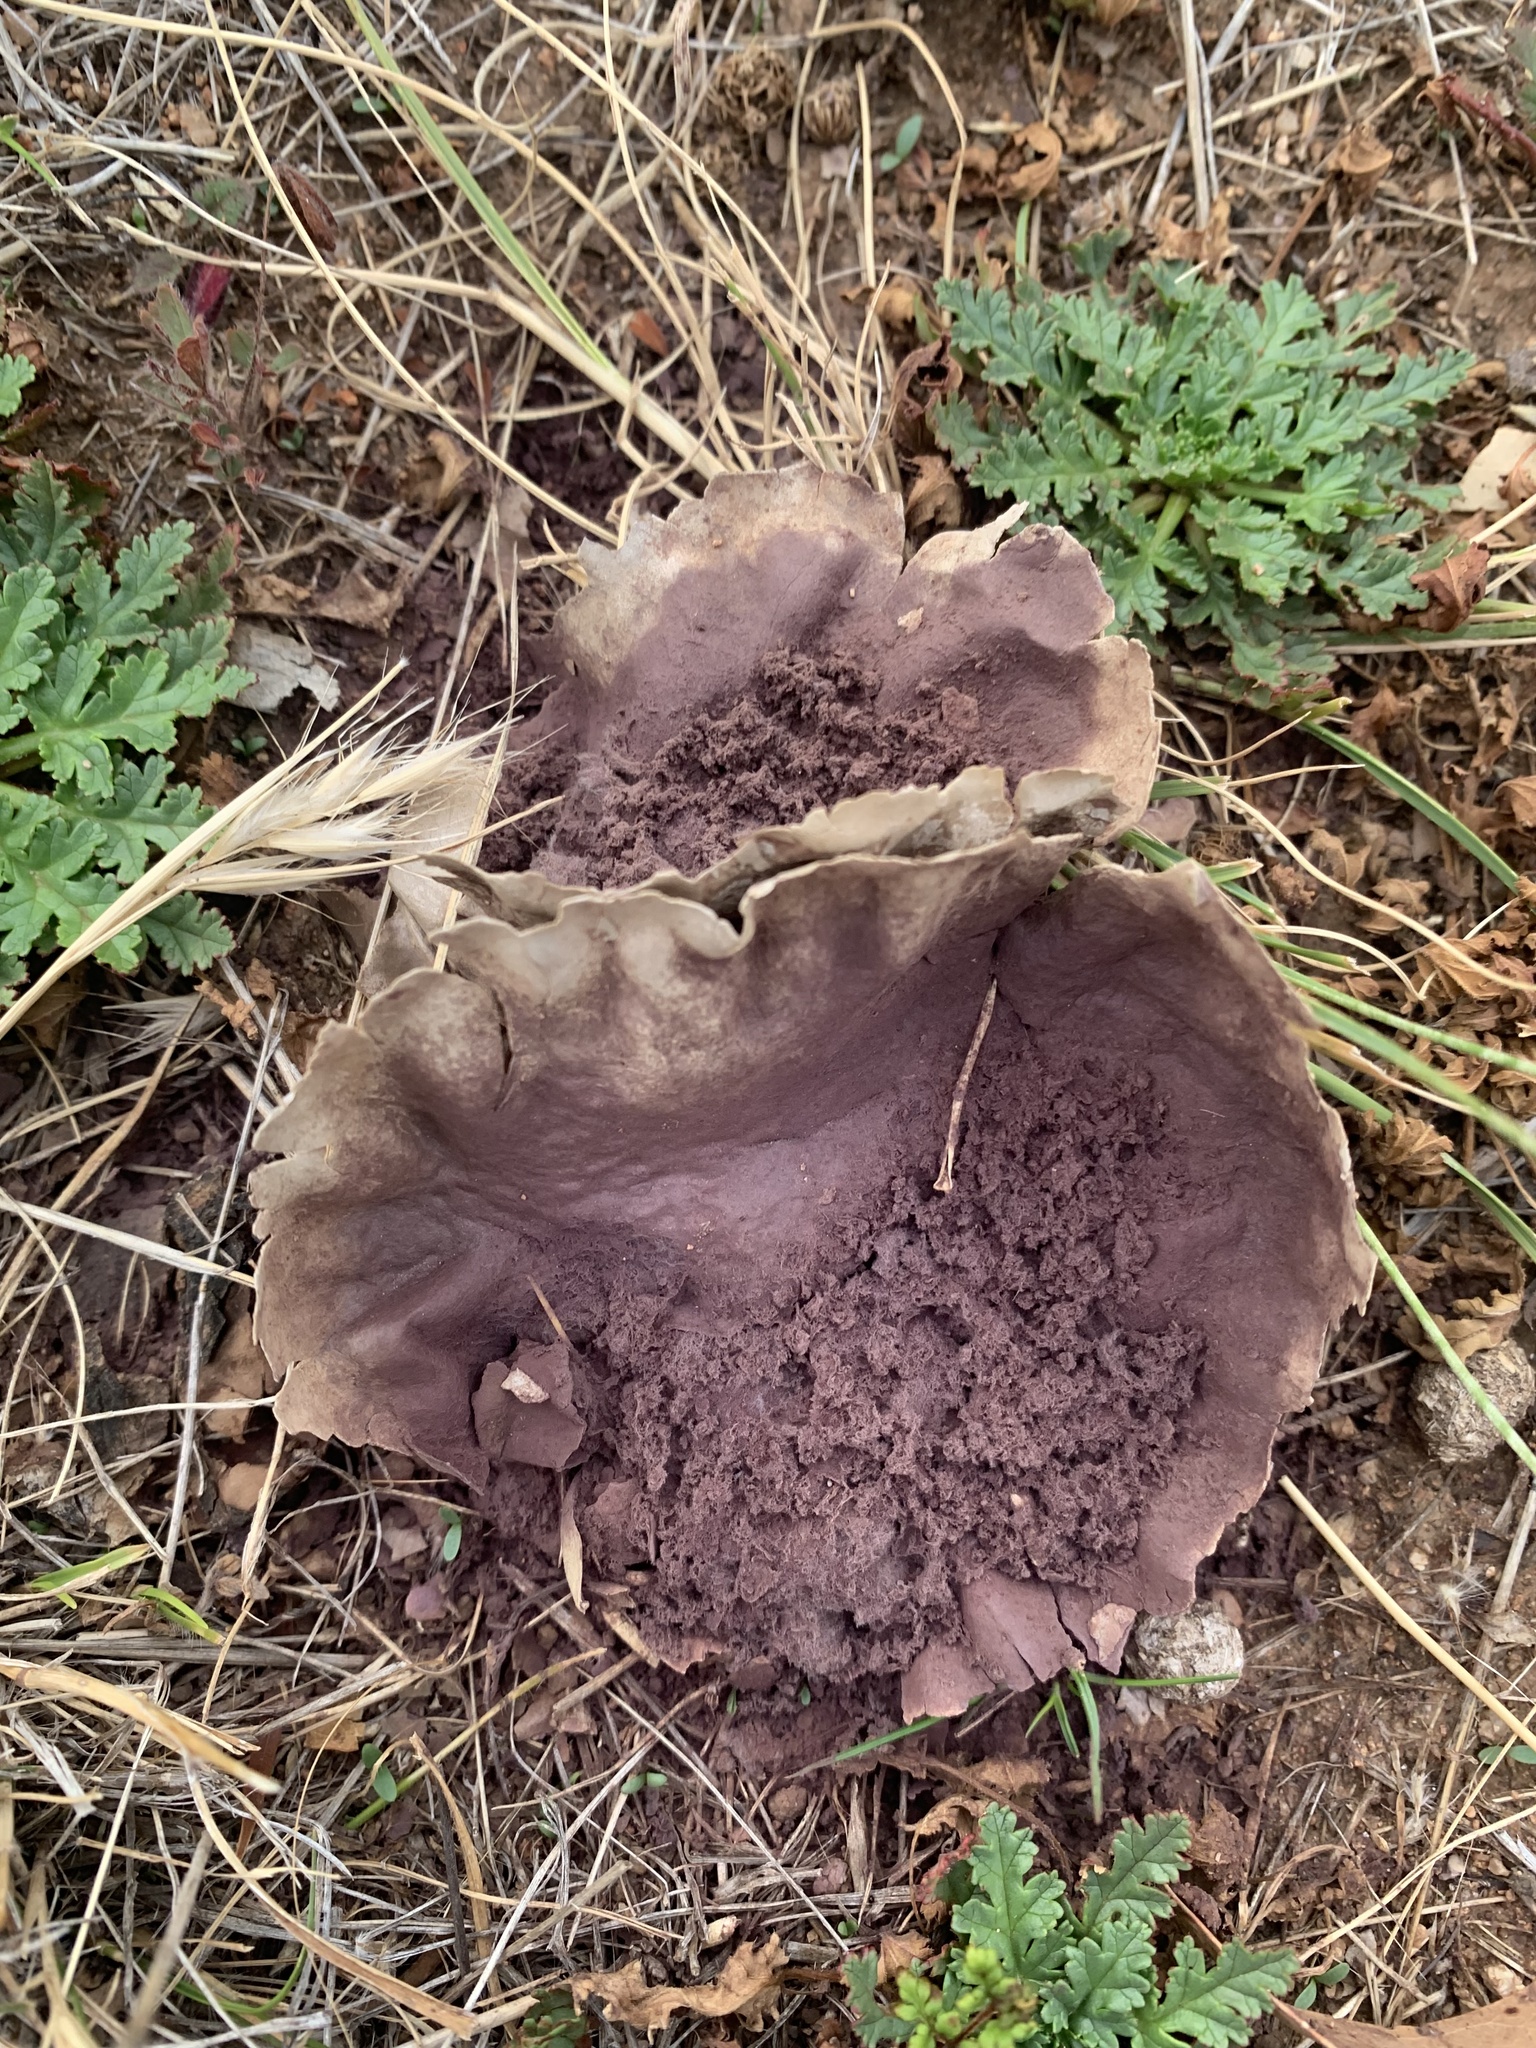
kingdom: Fungi
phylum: Basidiomycota
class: Agaricomycetes
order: Agaricales
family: Lycoperdaceae
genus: Calvatia
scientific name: Calvatia cyathiformis
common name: Purple-spored puffball
